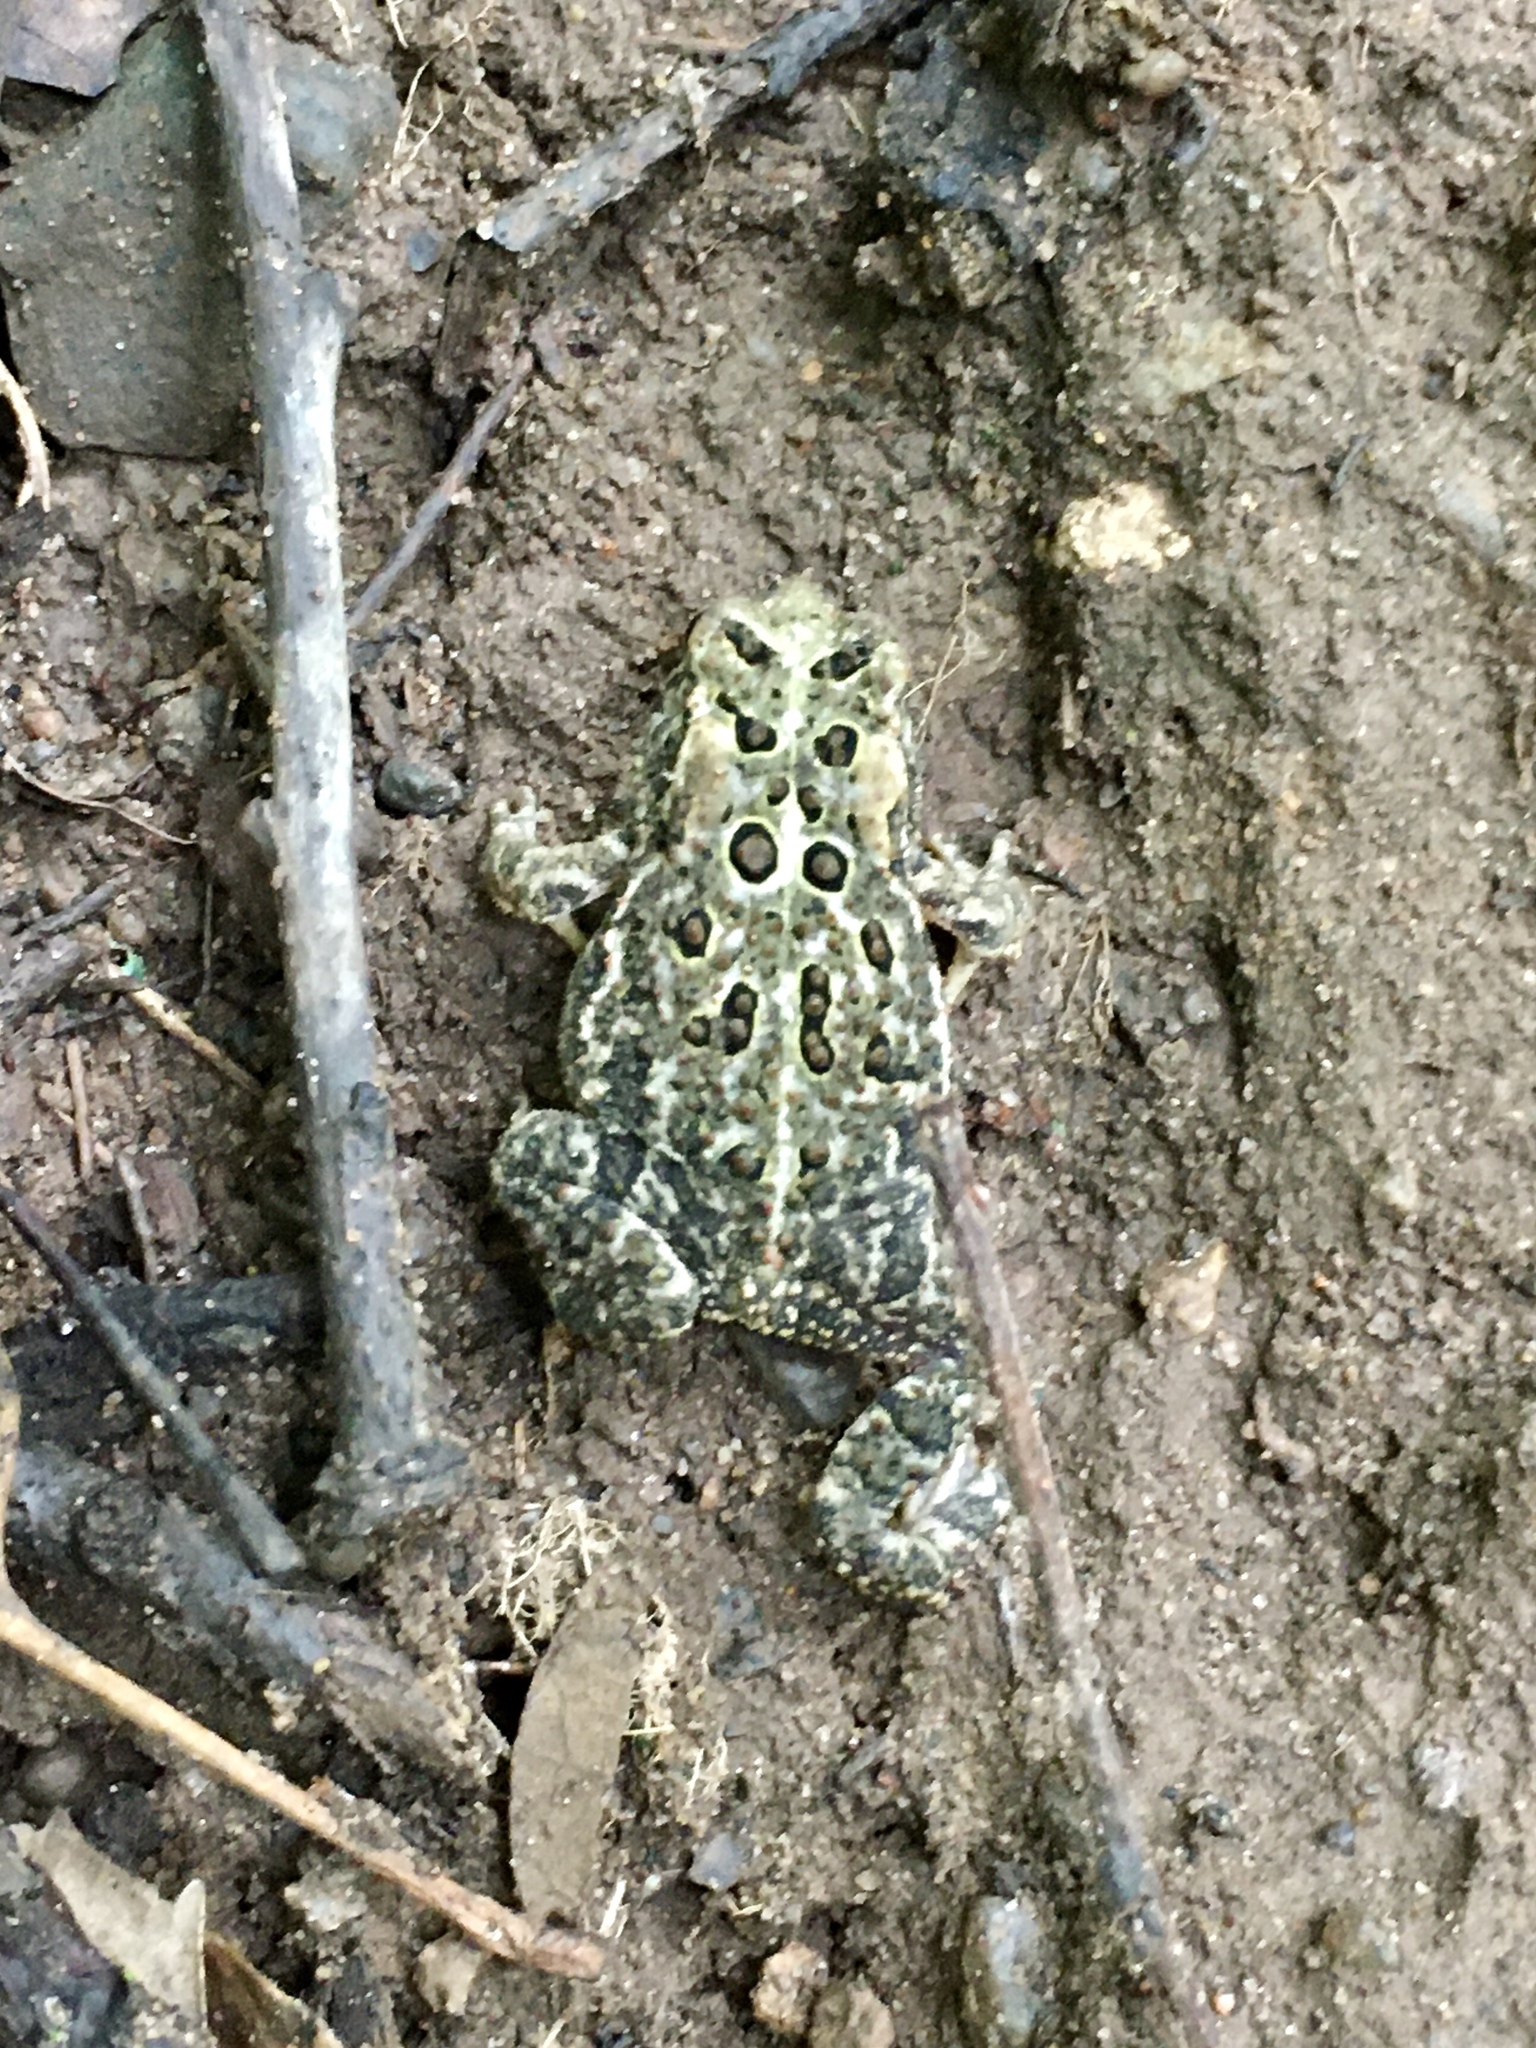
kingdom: Animalia
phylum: Chordata
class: Amphibia
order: Anura
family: Bufonidae
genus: Anaxyrus
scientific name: Anaxyrus americanus
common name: American toad
